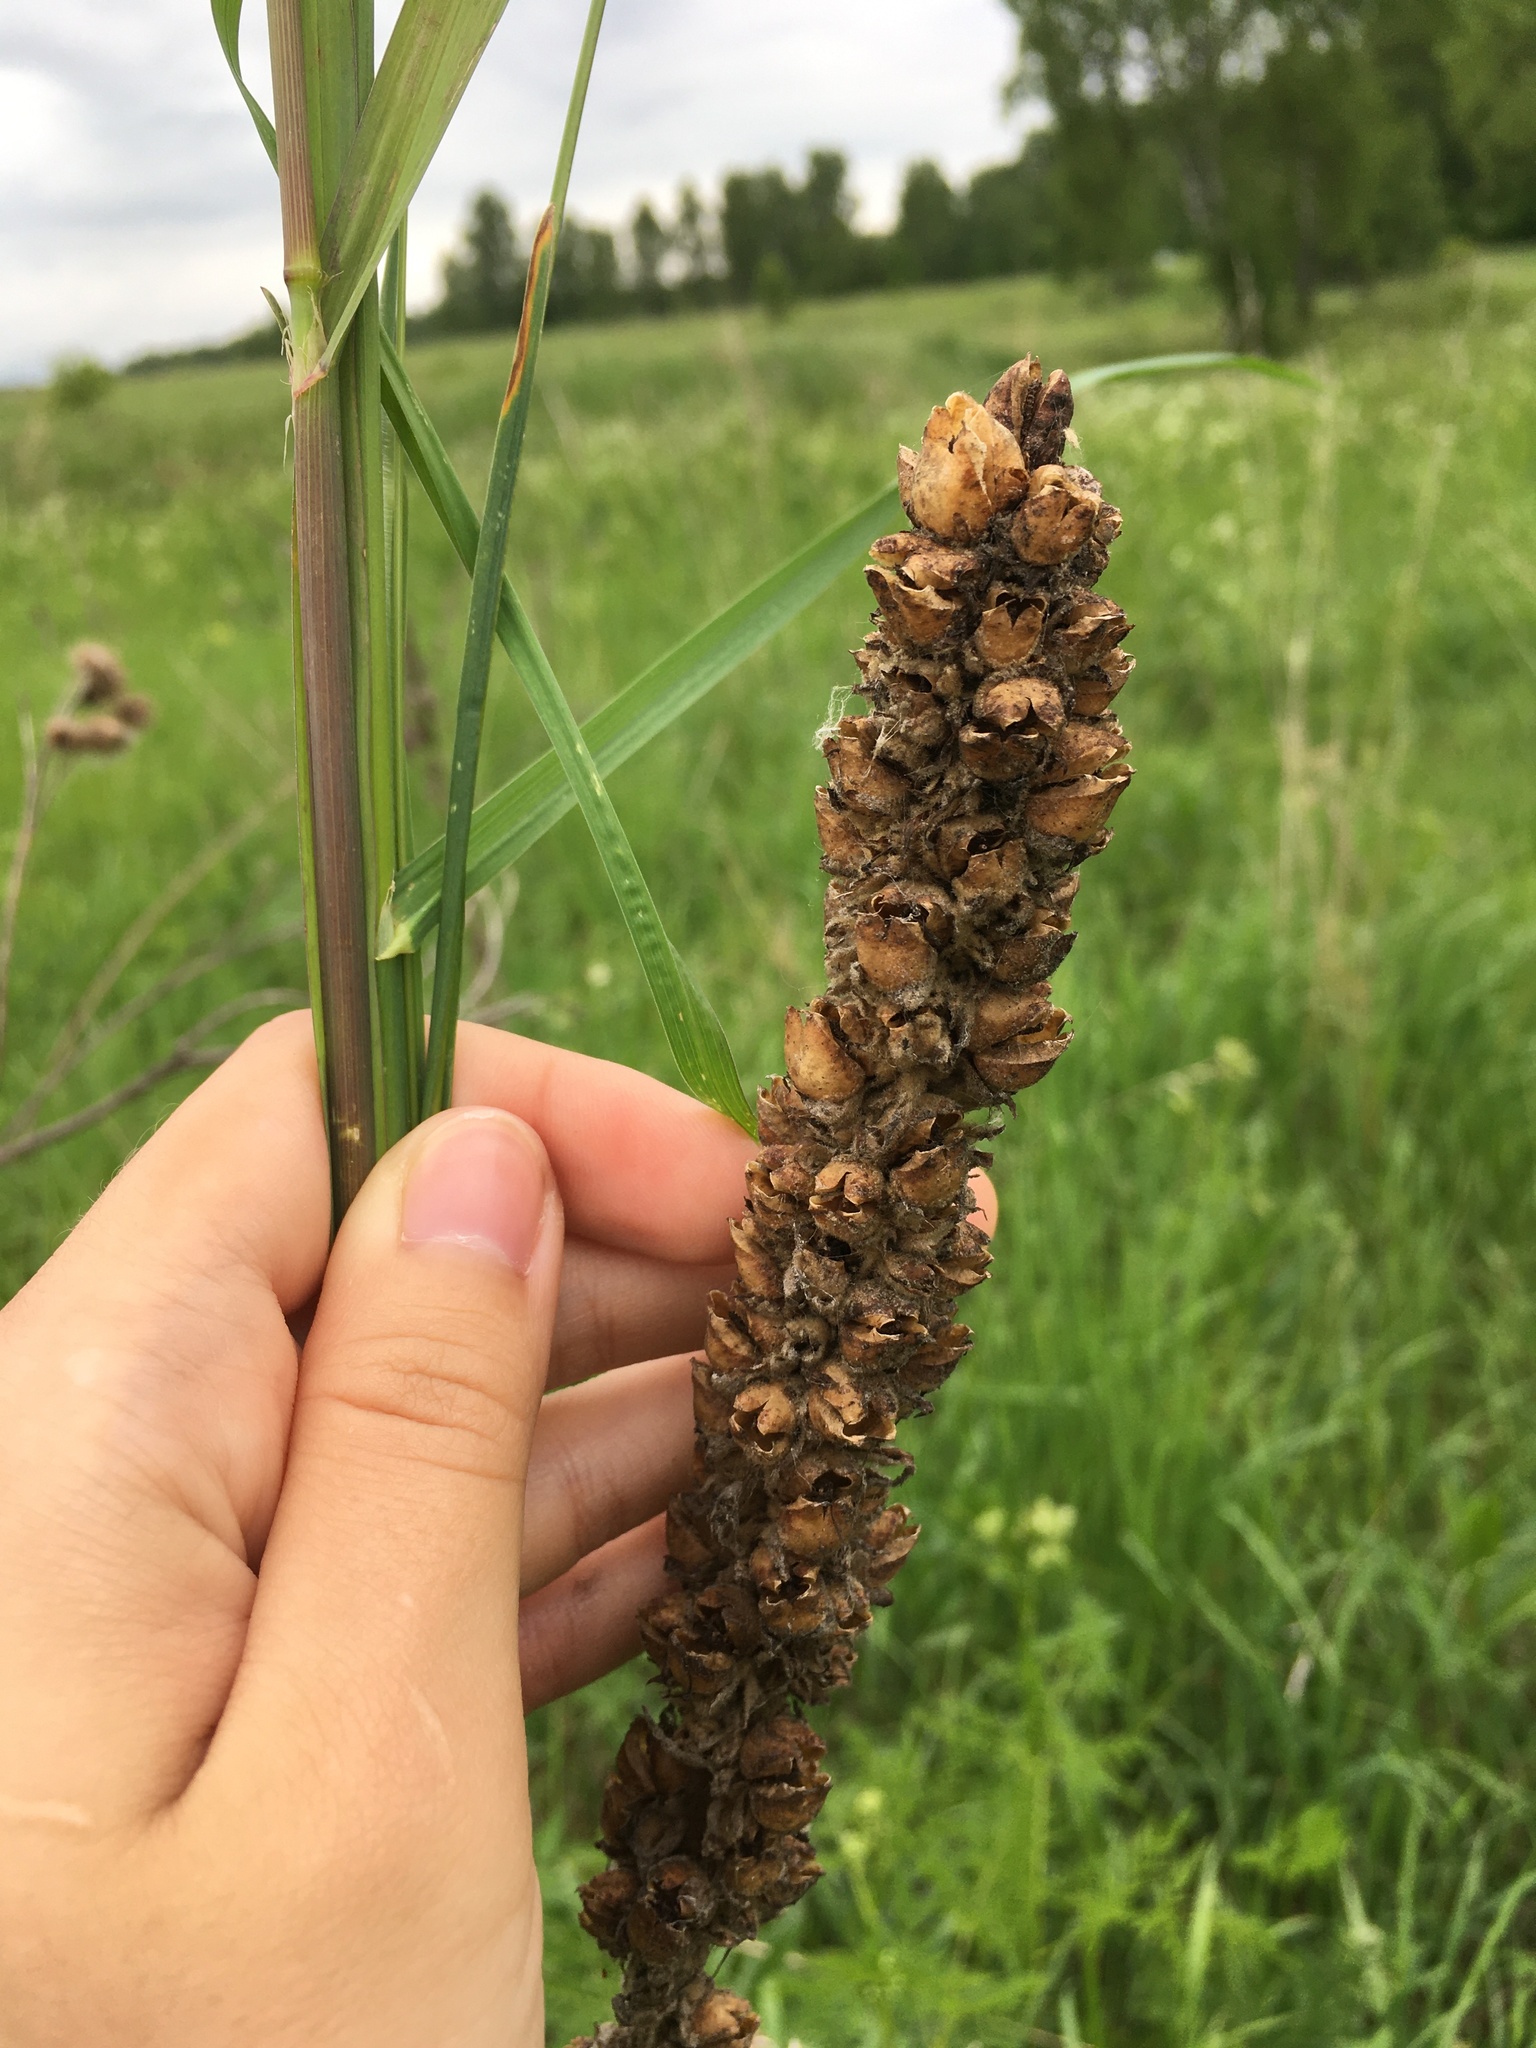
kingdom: Plantae
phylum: Tracheophyta
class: Magnoliopsida
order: Lamiales
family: Scrophulariaceae
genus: Verbascum
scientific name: Verbascum thapsus
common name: Common mullein
